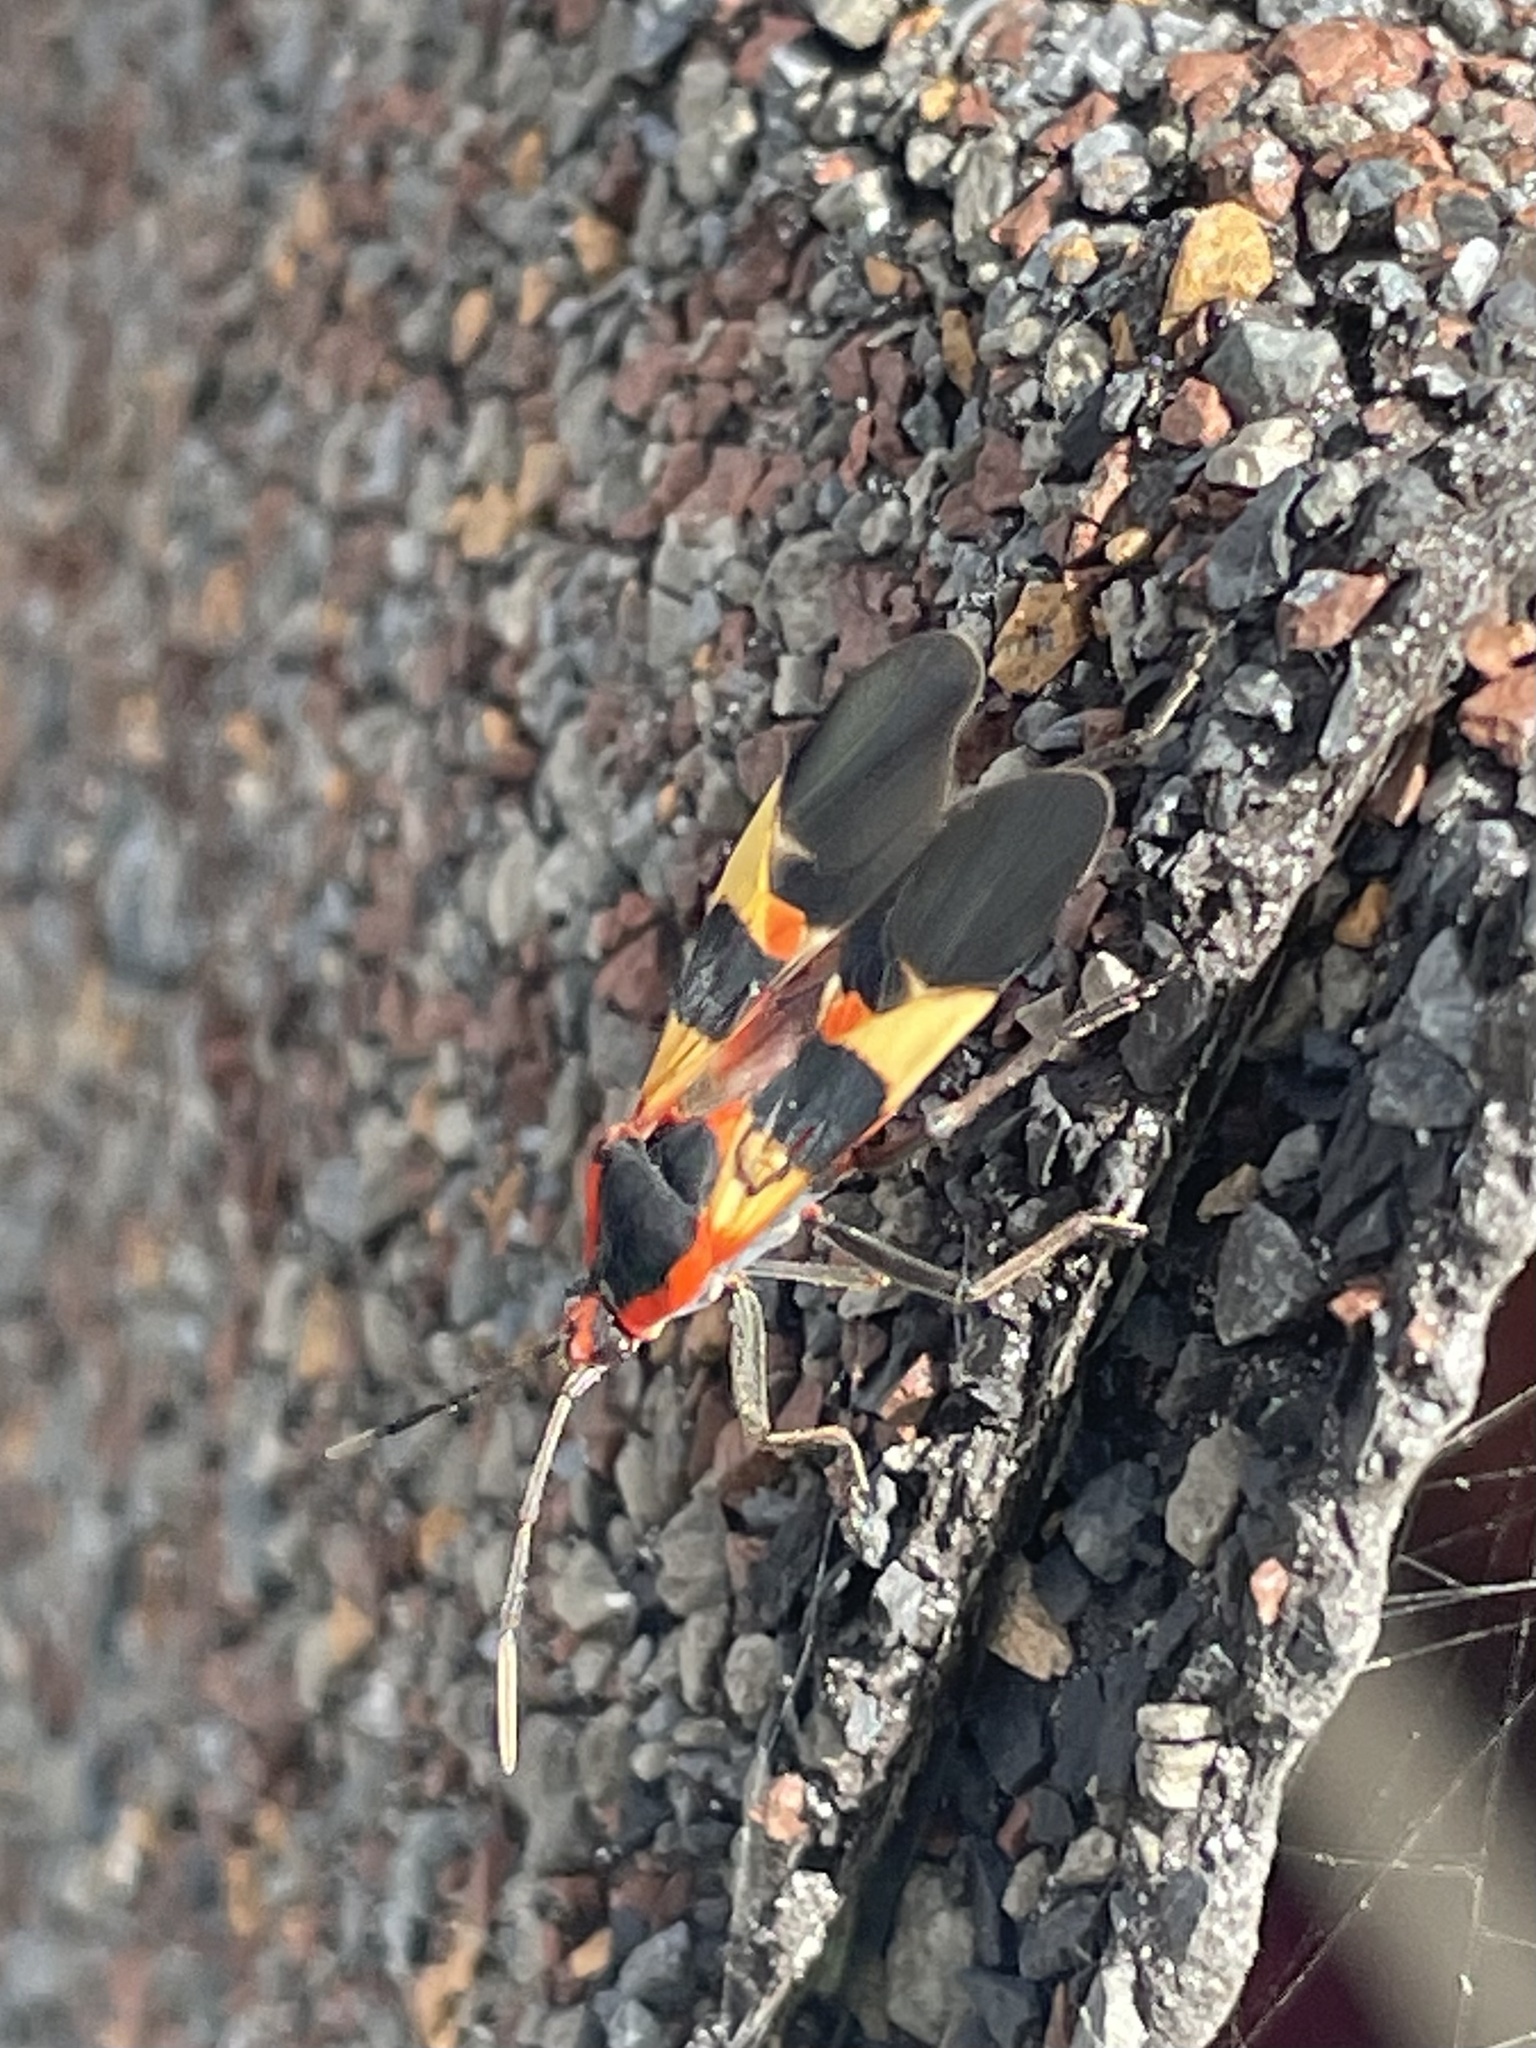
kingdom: Animalia
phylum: Arthropoda
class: Insecta
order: Hemiptera
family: Lygaeidae
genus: Oncopeltus
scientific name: Oncopeltus fasciatus
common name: Large milkweed bug
